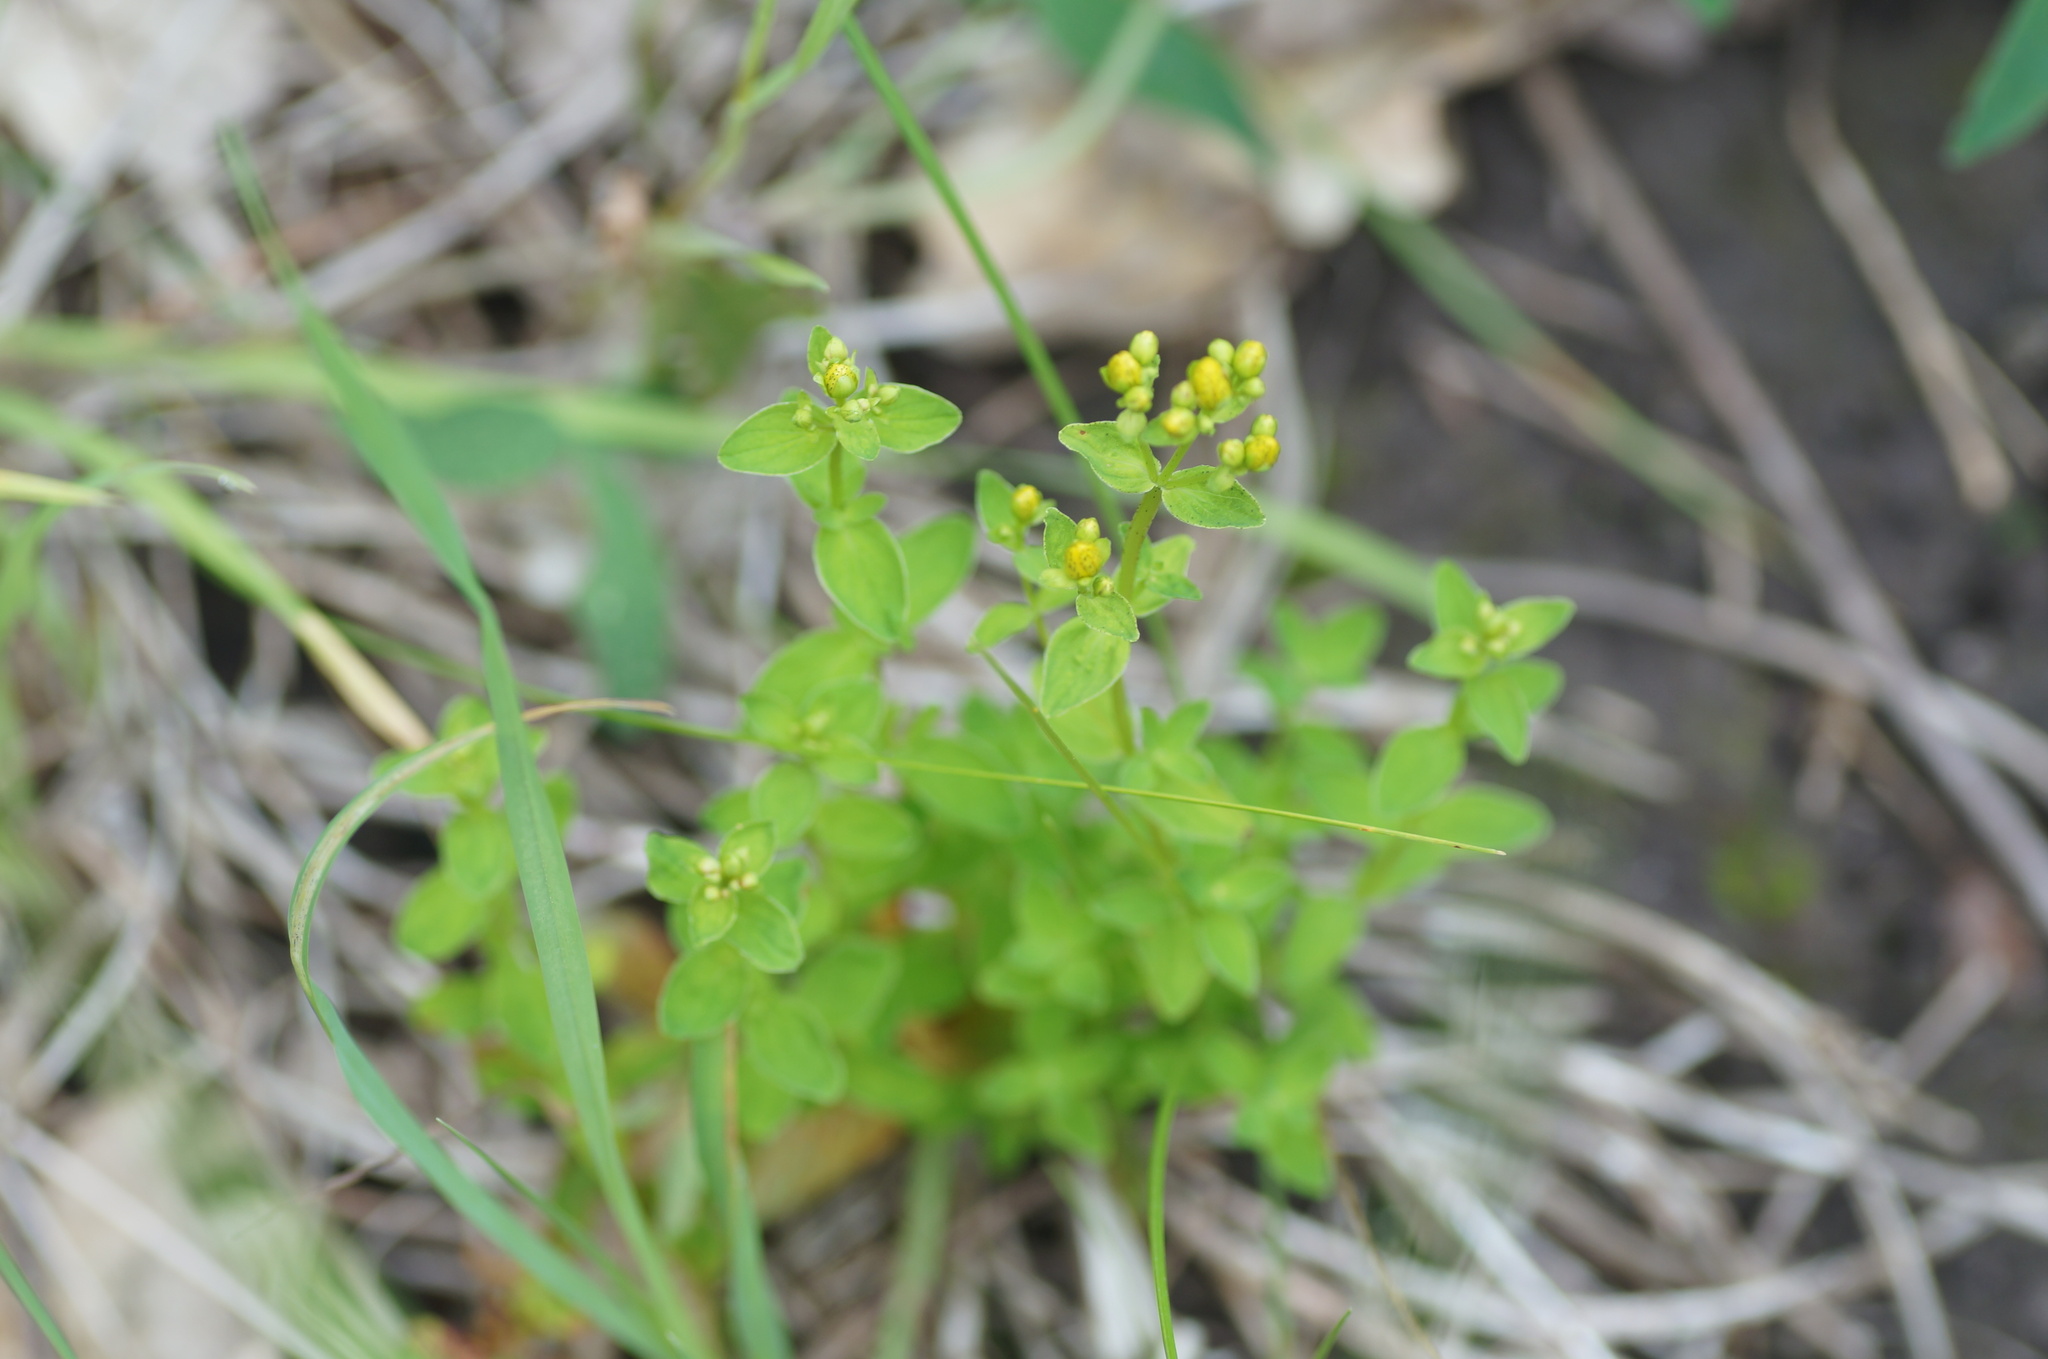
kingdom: Plantae
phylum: Tracheophyta
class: Magnoliopsida
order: Malpighiales
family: Hypericaceae
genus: Hypericum
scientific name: Hypericum maculatum
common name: Imperforate st. john's-wort
